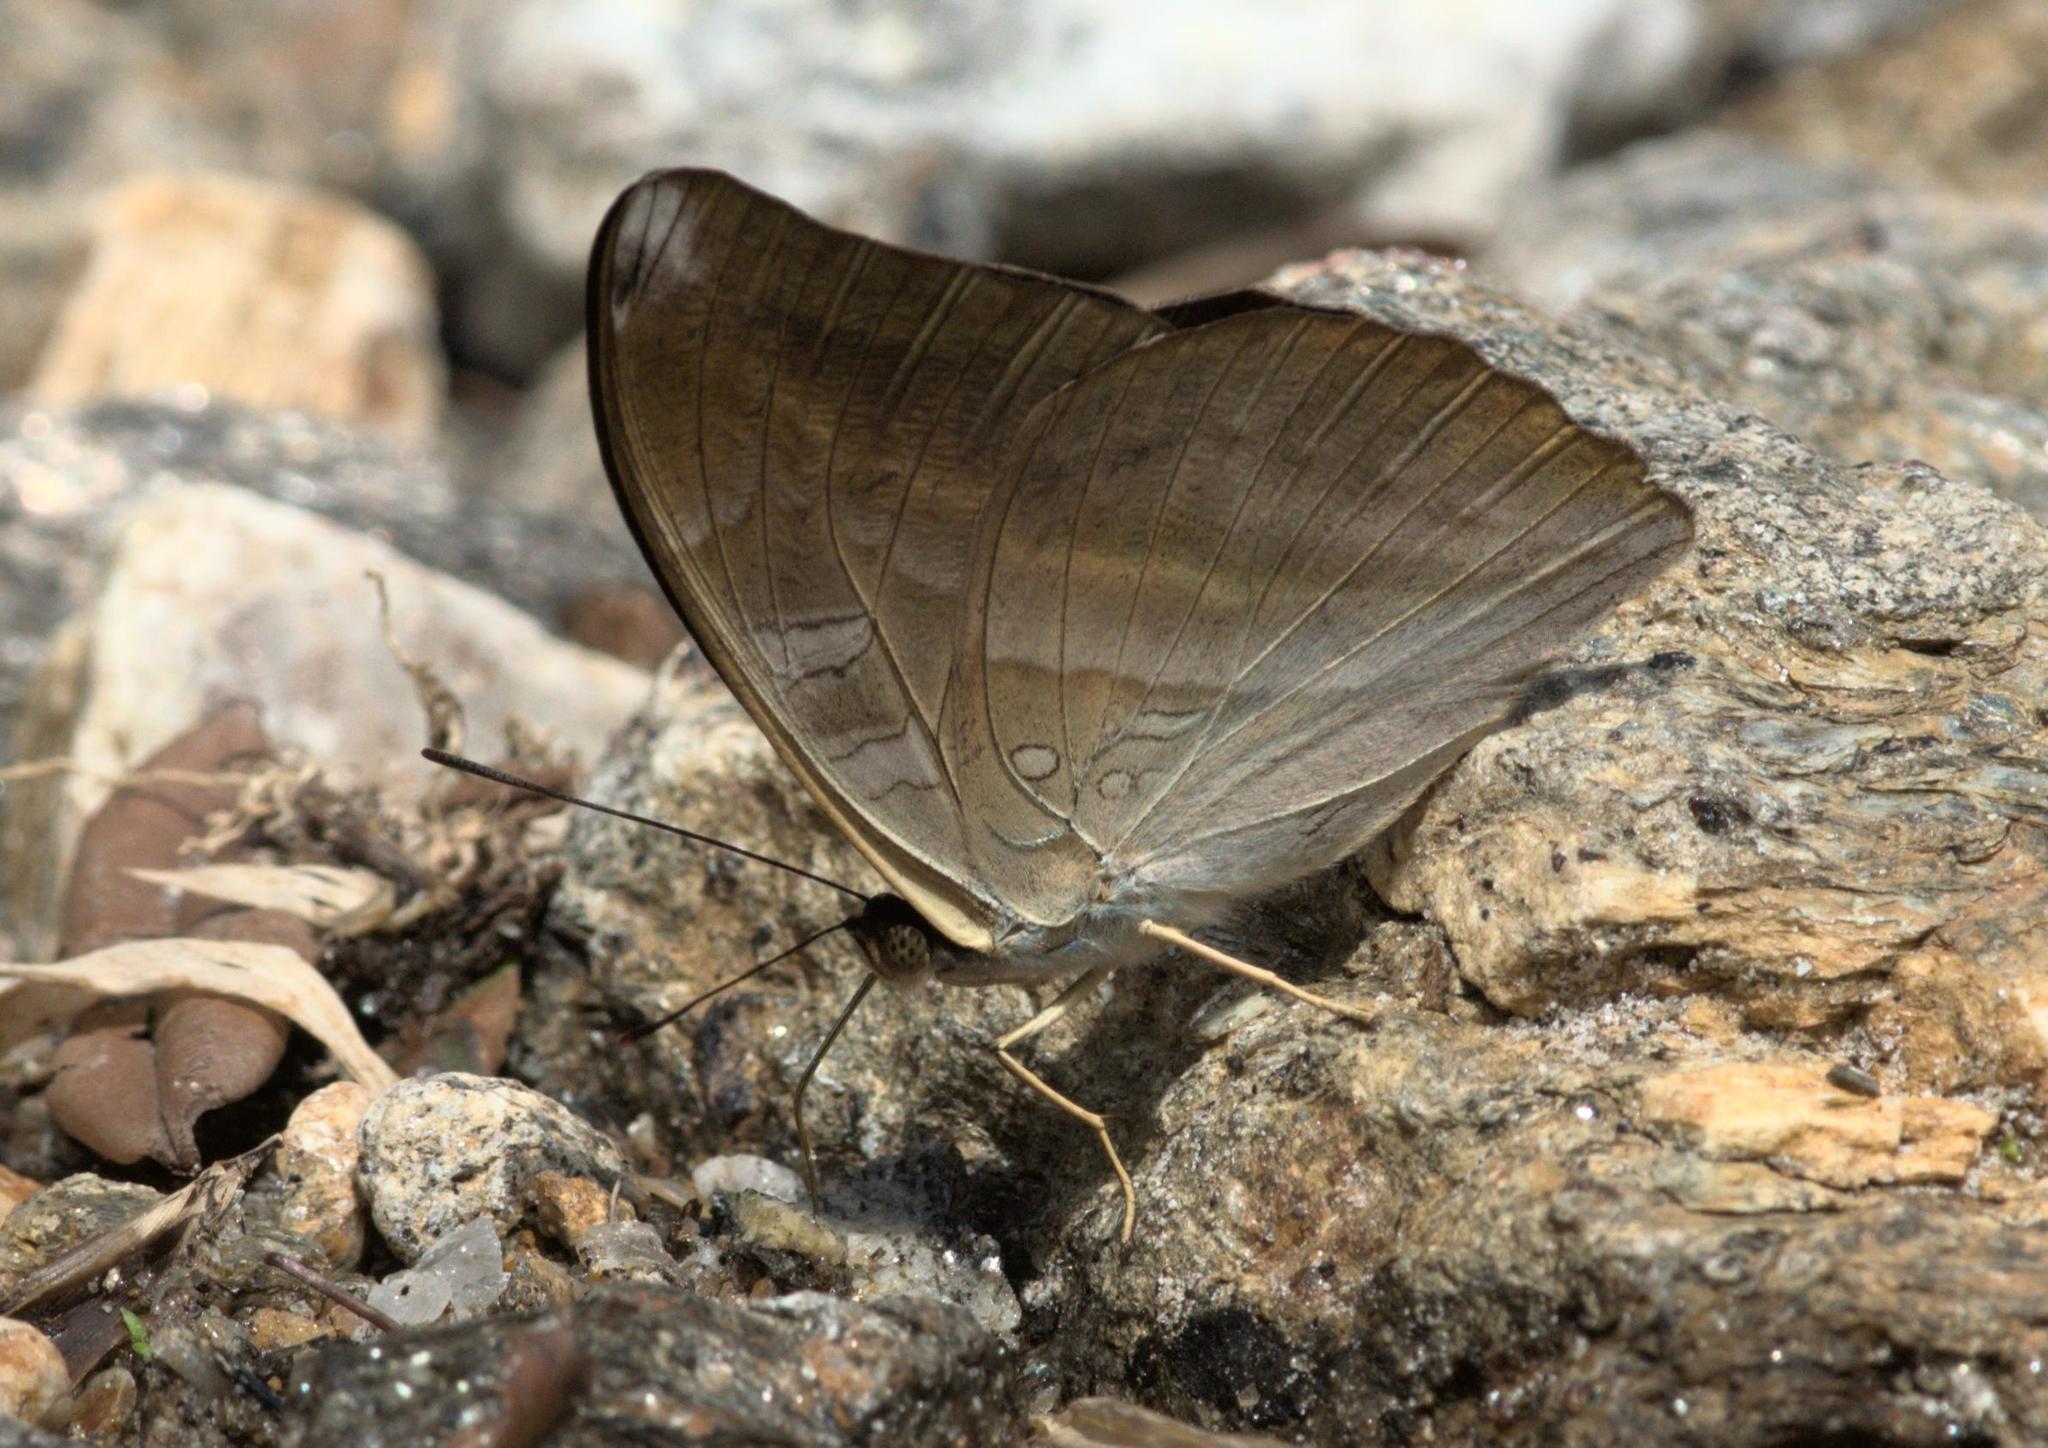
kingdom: Animalia
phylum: Arthropoda
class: Insecta
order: Lepidoptera
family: Nymphalidae
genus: Limenitis
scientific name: Limenitis Auzakia danava
